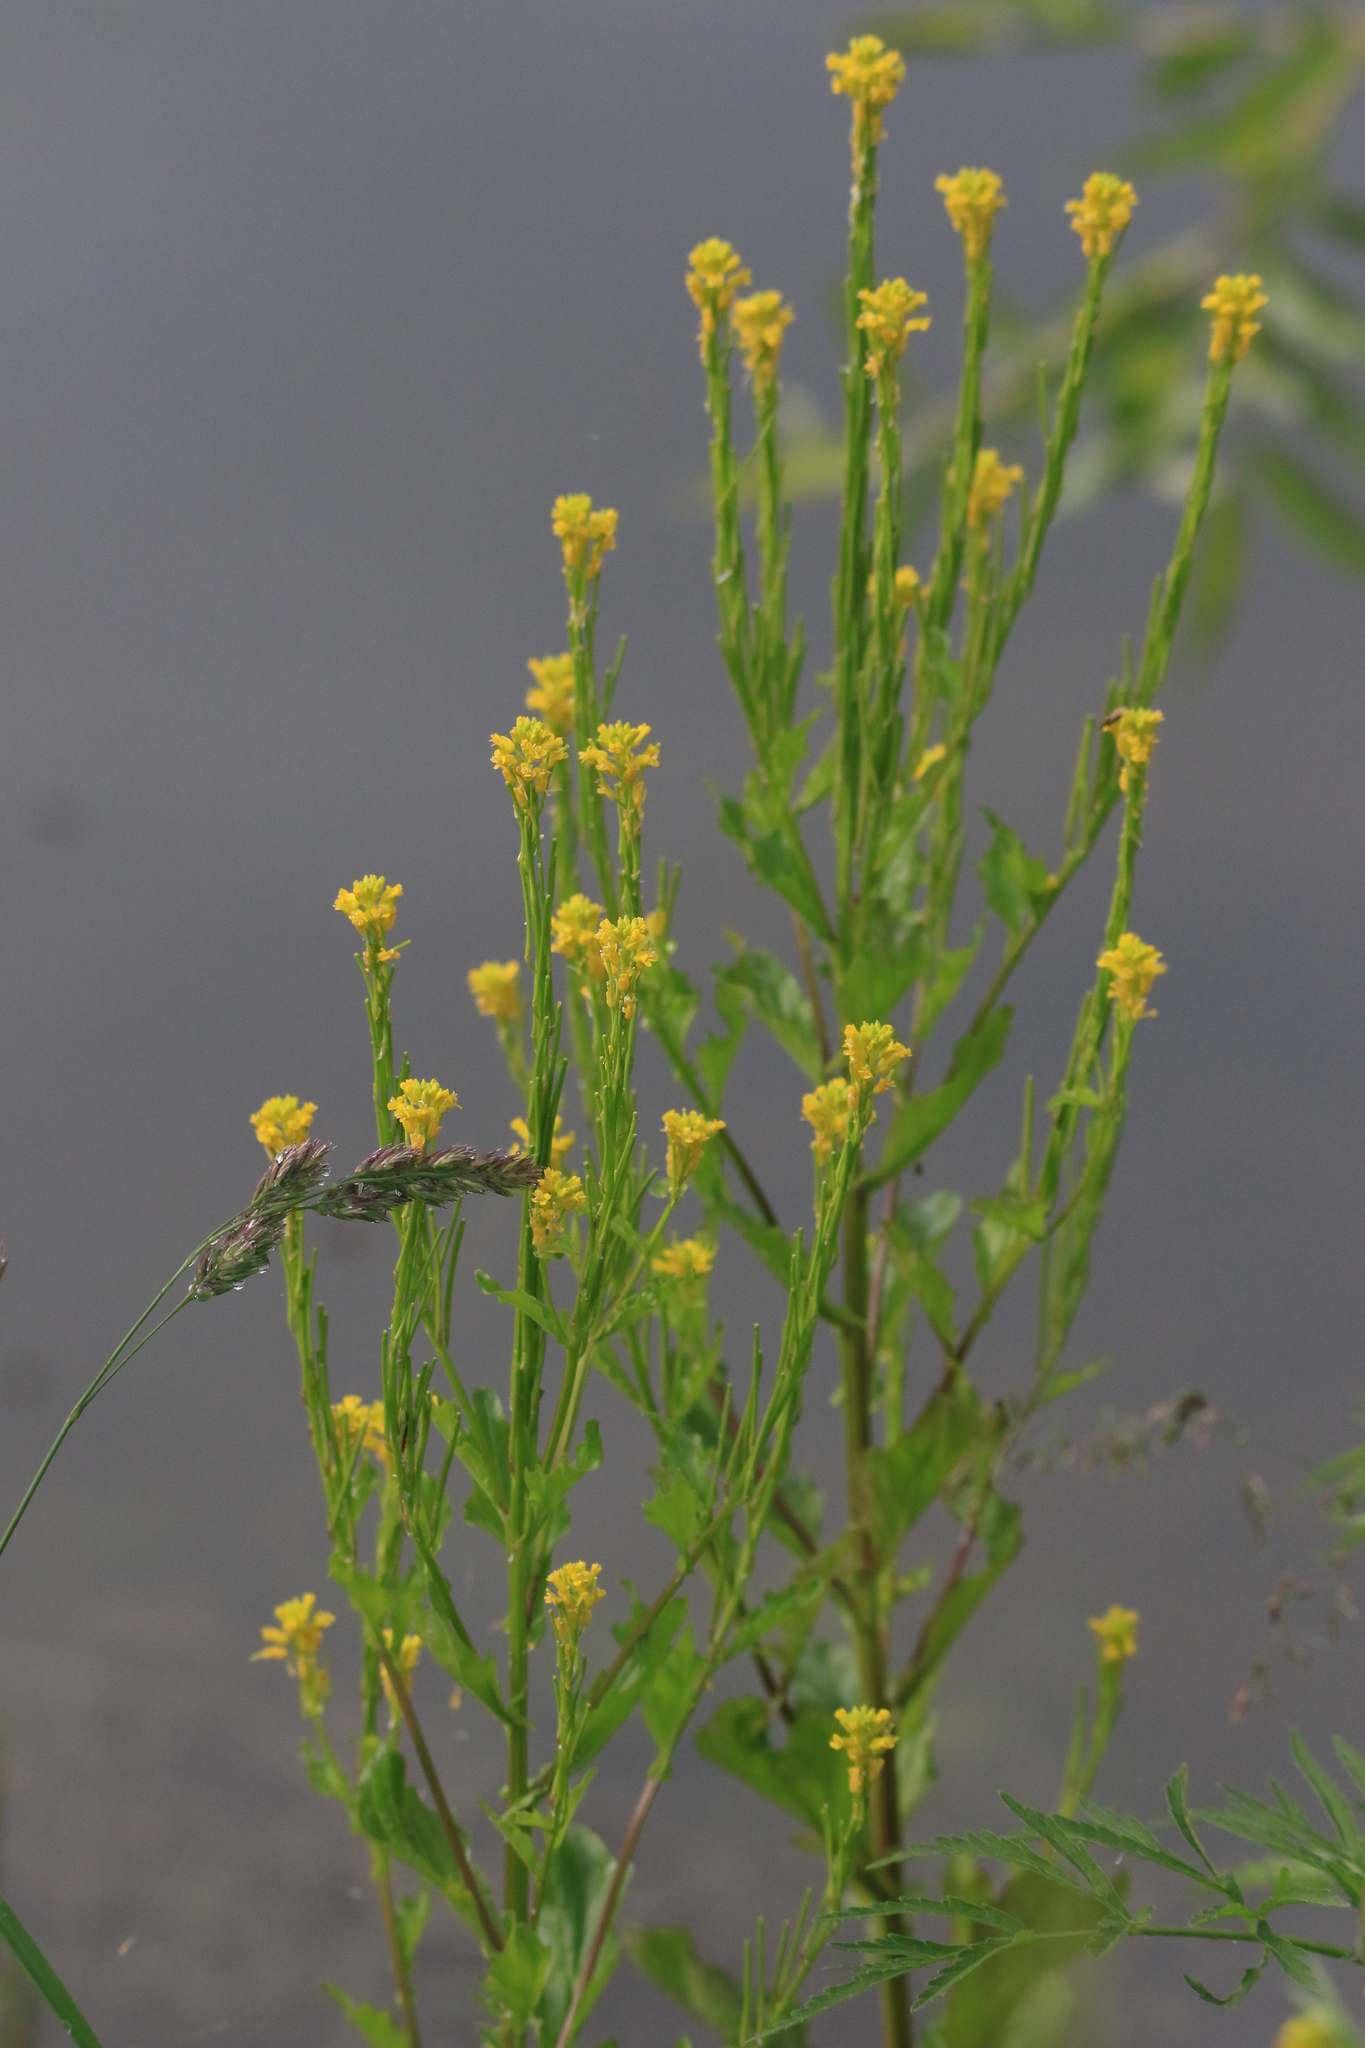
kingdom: Plantae
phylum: Tracheophyta
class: Magnoliopsida
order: Brassicales
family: Brassicaceae
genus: Barbarea
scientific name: Barbarea stricta
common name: Small-flowered winter-cress
